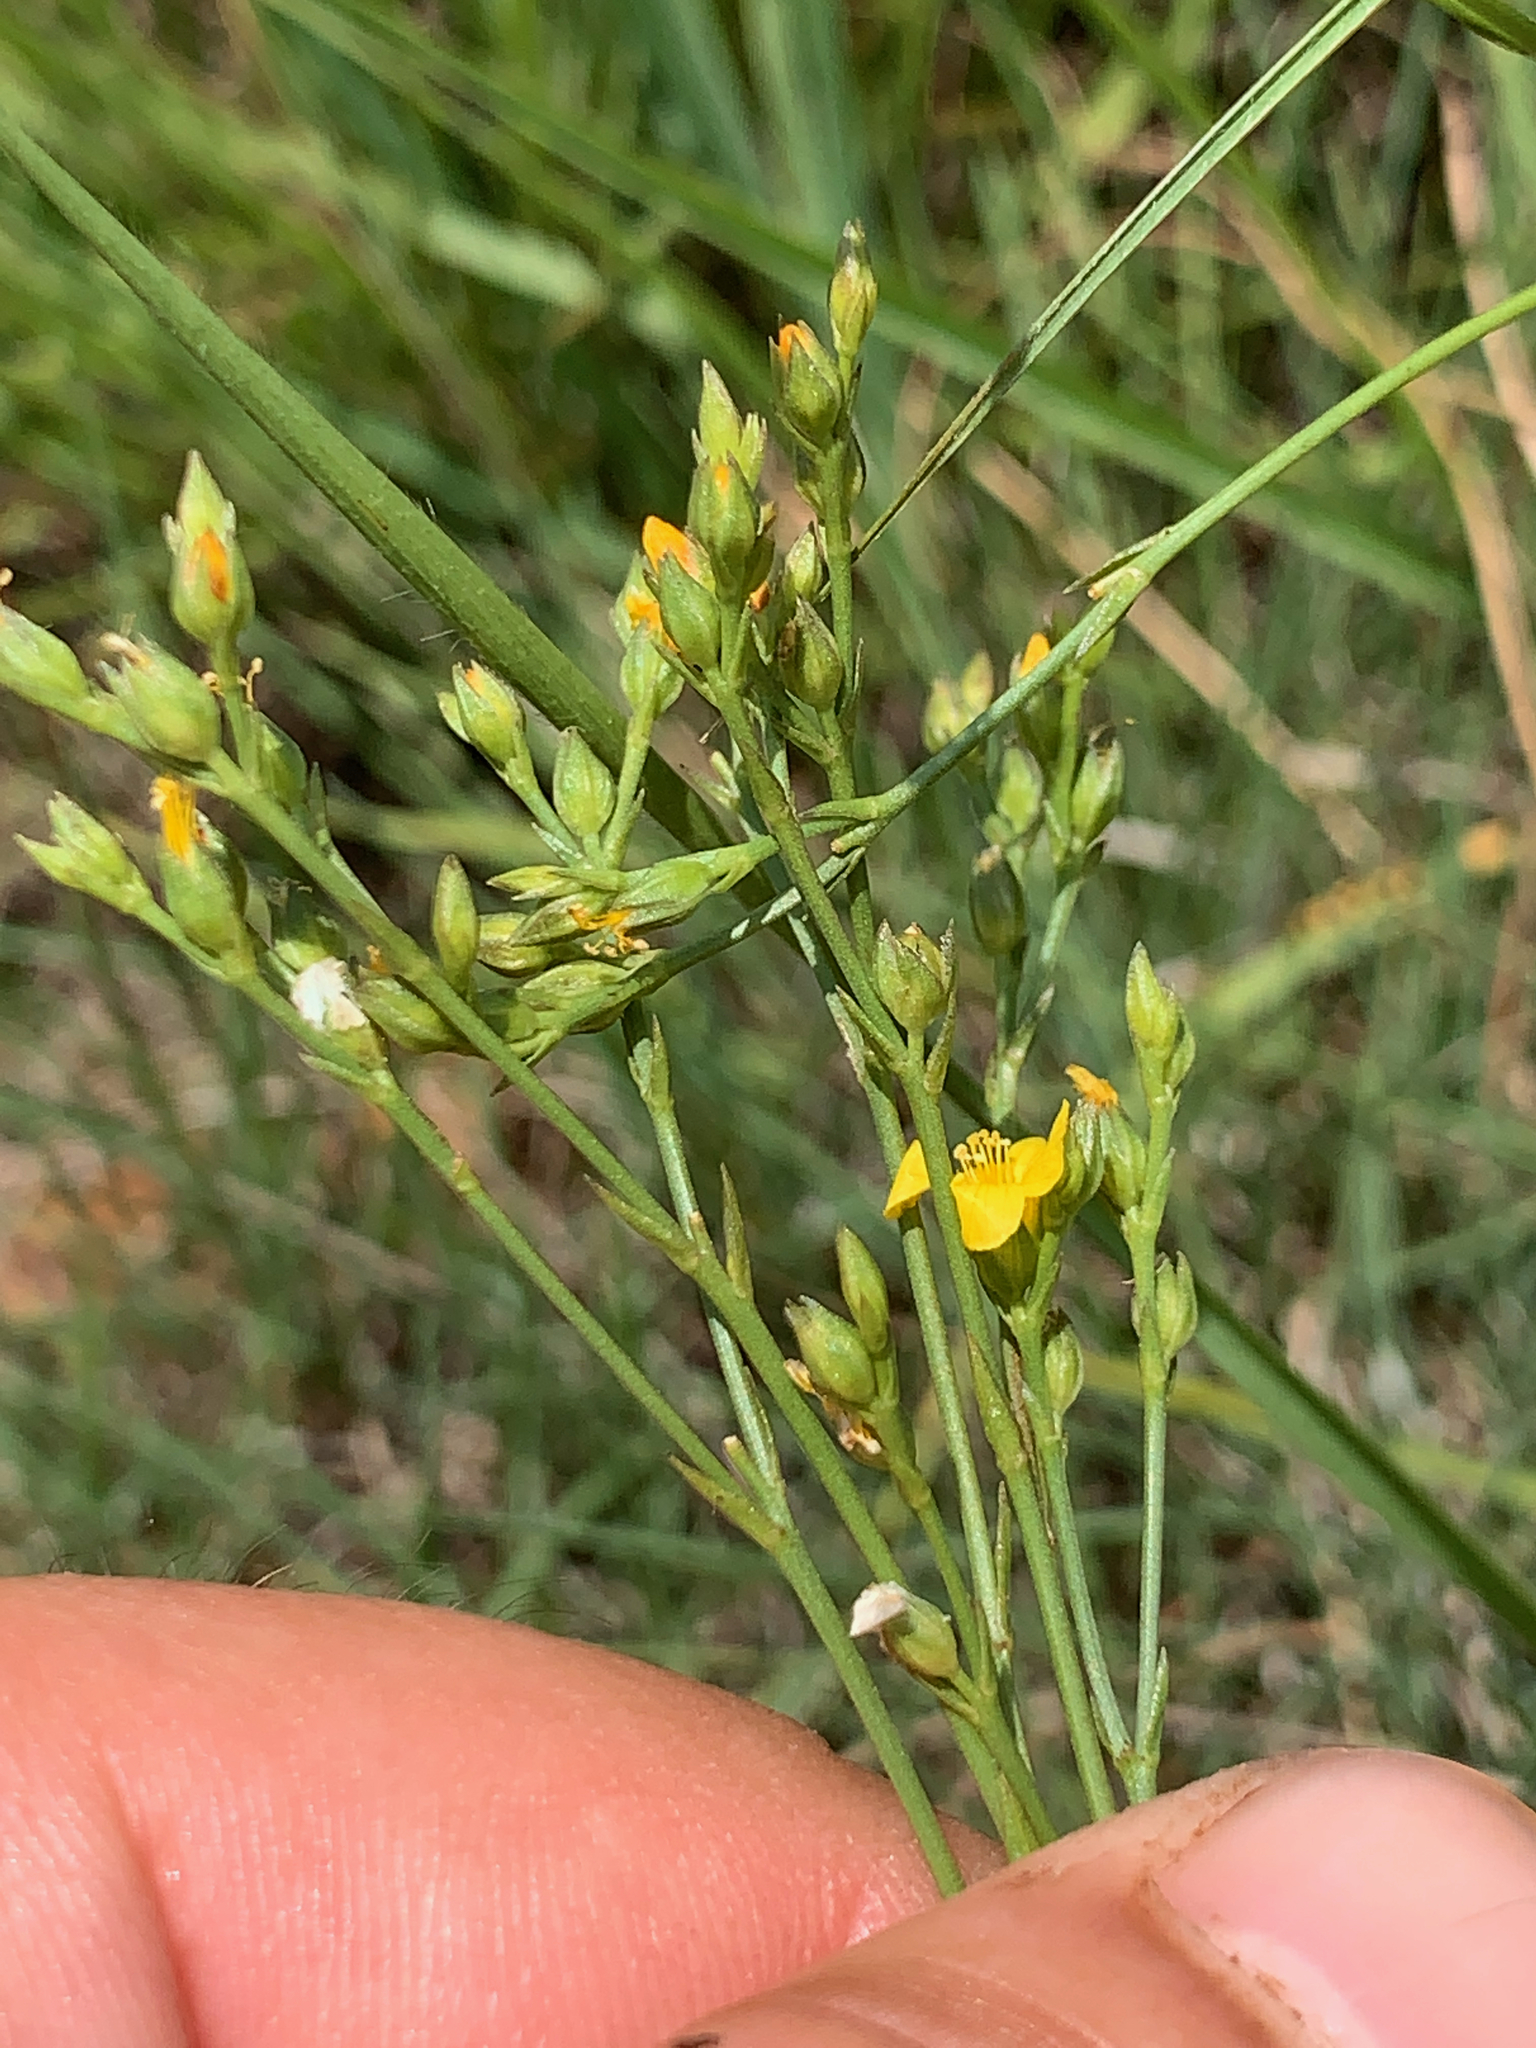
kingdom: Plantae
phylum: Tracheophyta
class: Magnoliopsida
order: Malpighiales
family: Linaceae
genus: Linum
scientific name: Linum thunbergii
